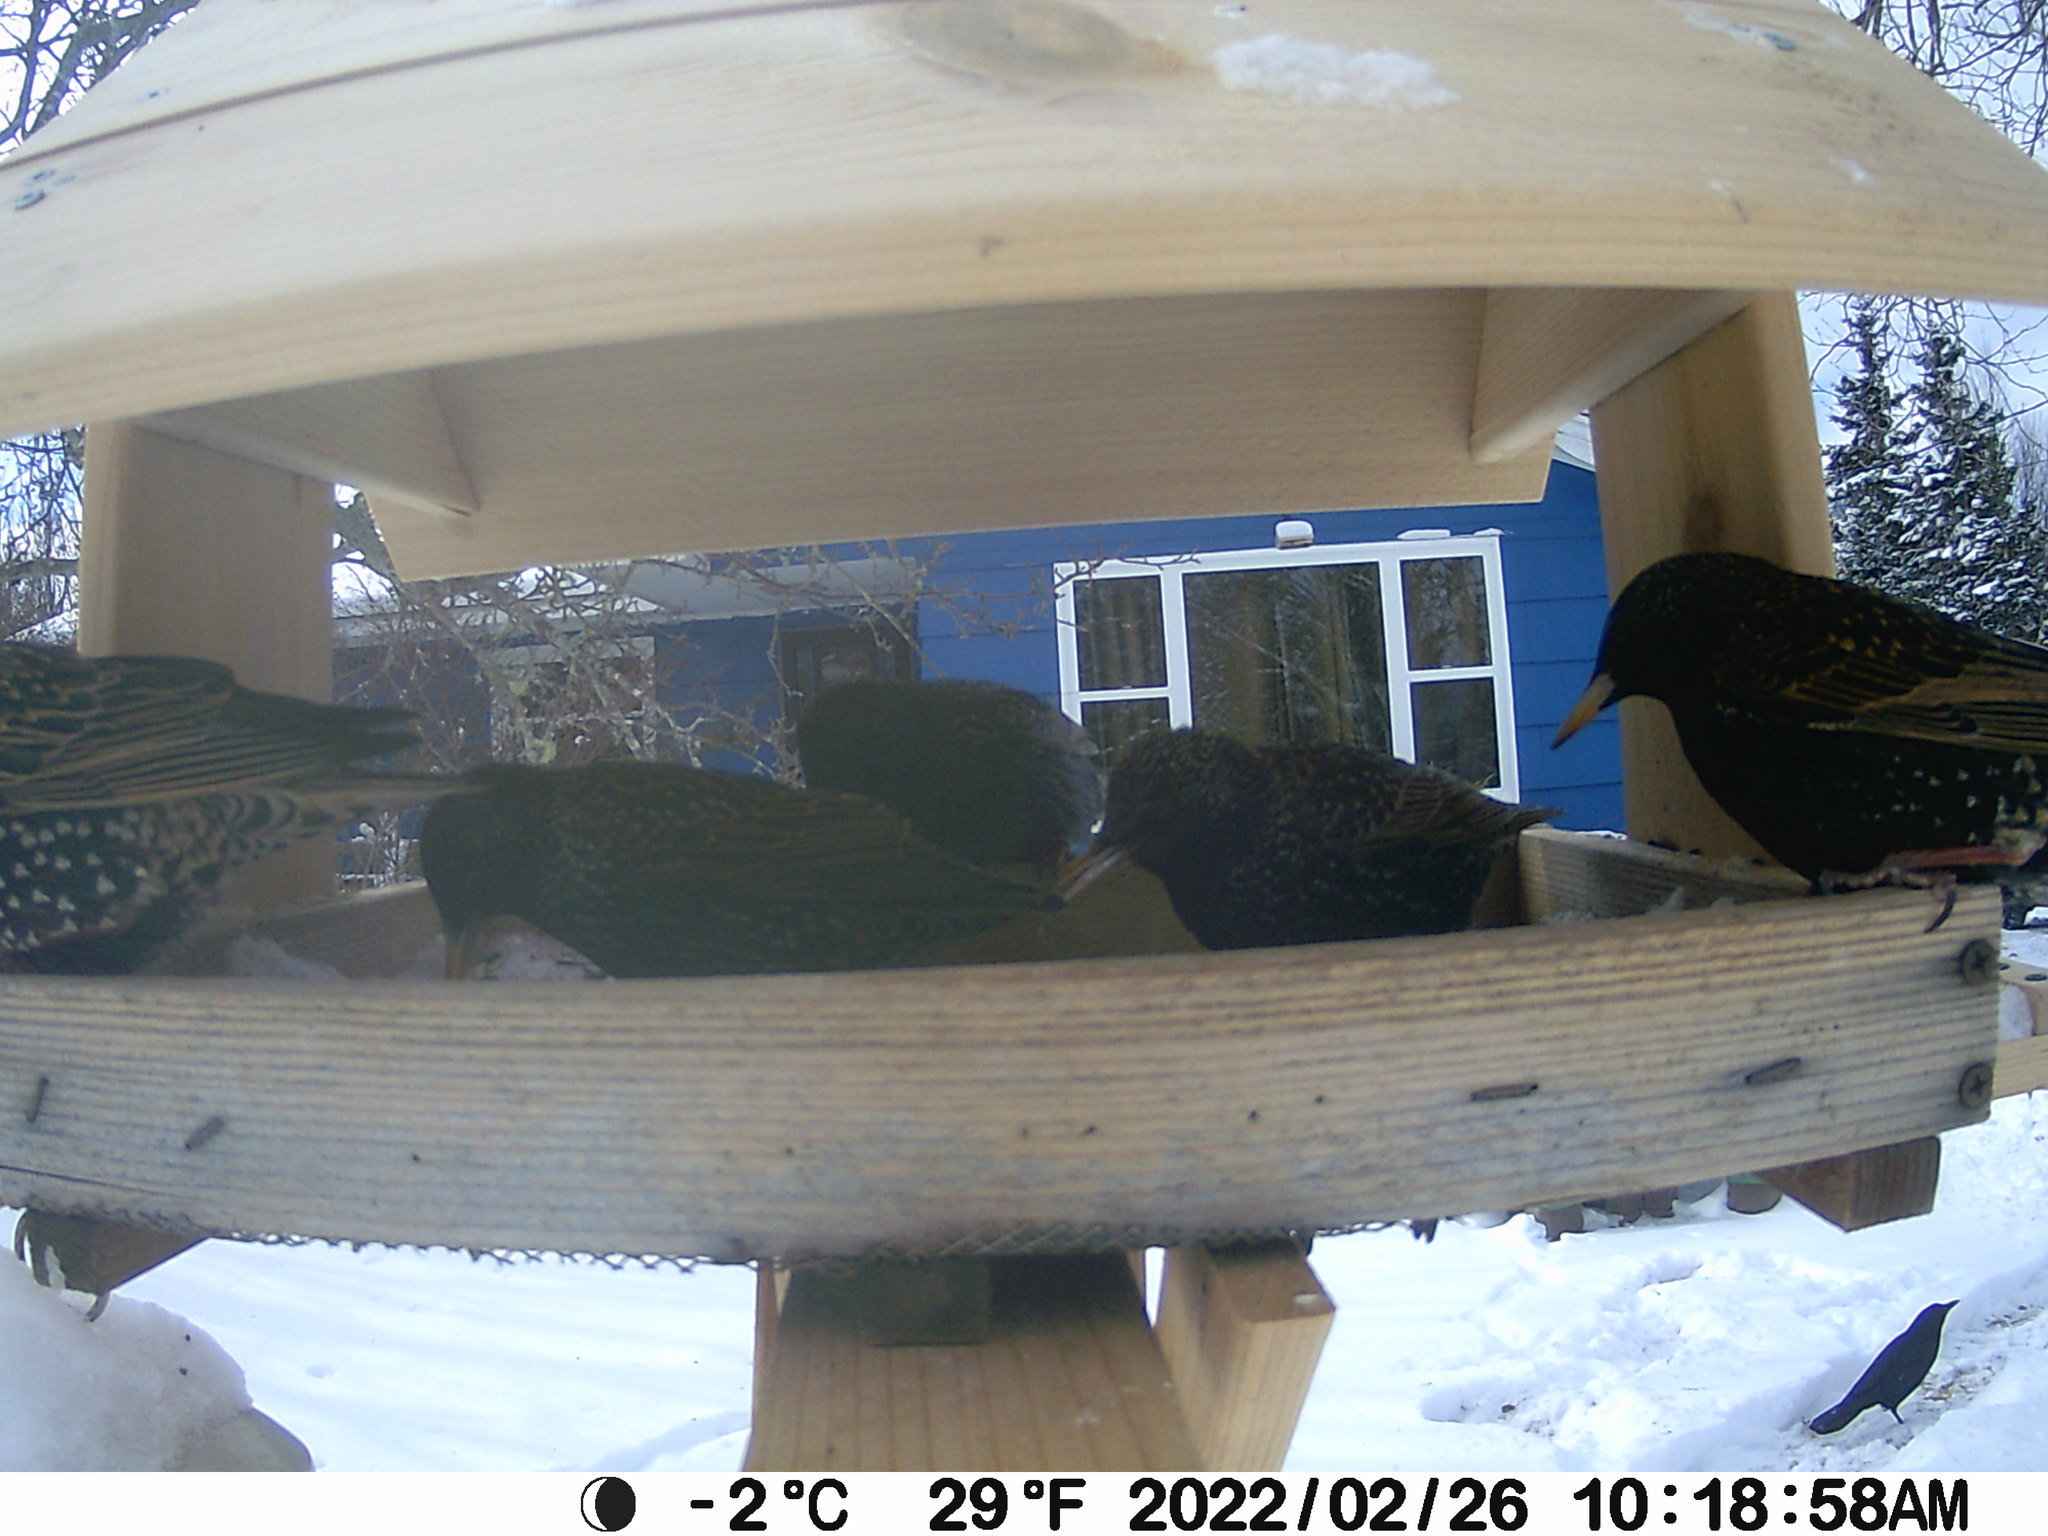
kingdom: Animalia
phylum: Chordata
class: Aves
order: Passeriformes
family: Sturnidae
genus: Sturnus
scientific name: Sturnus vulgaris
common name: Common starling
